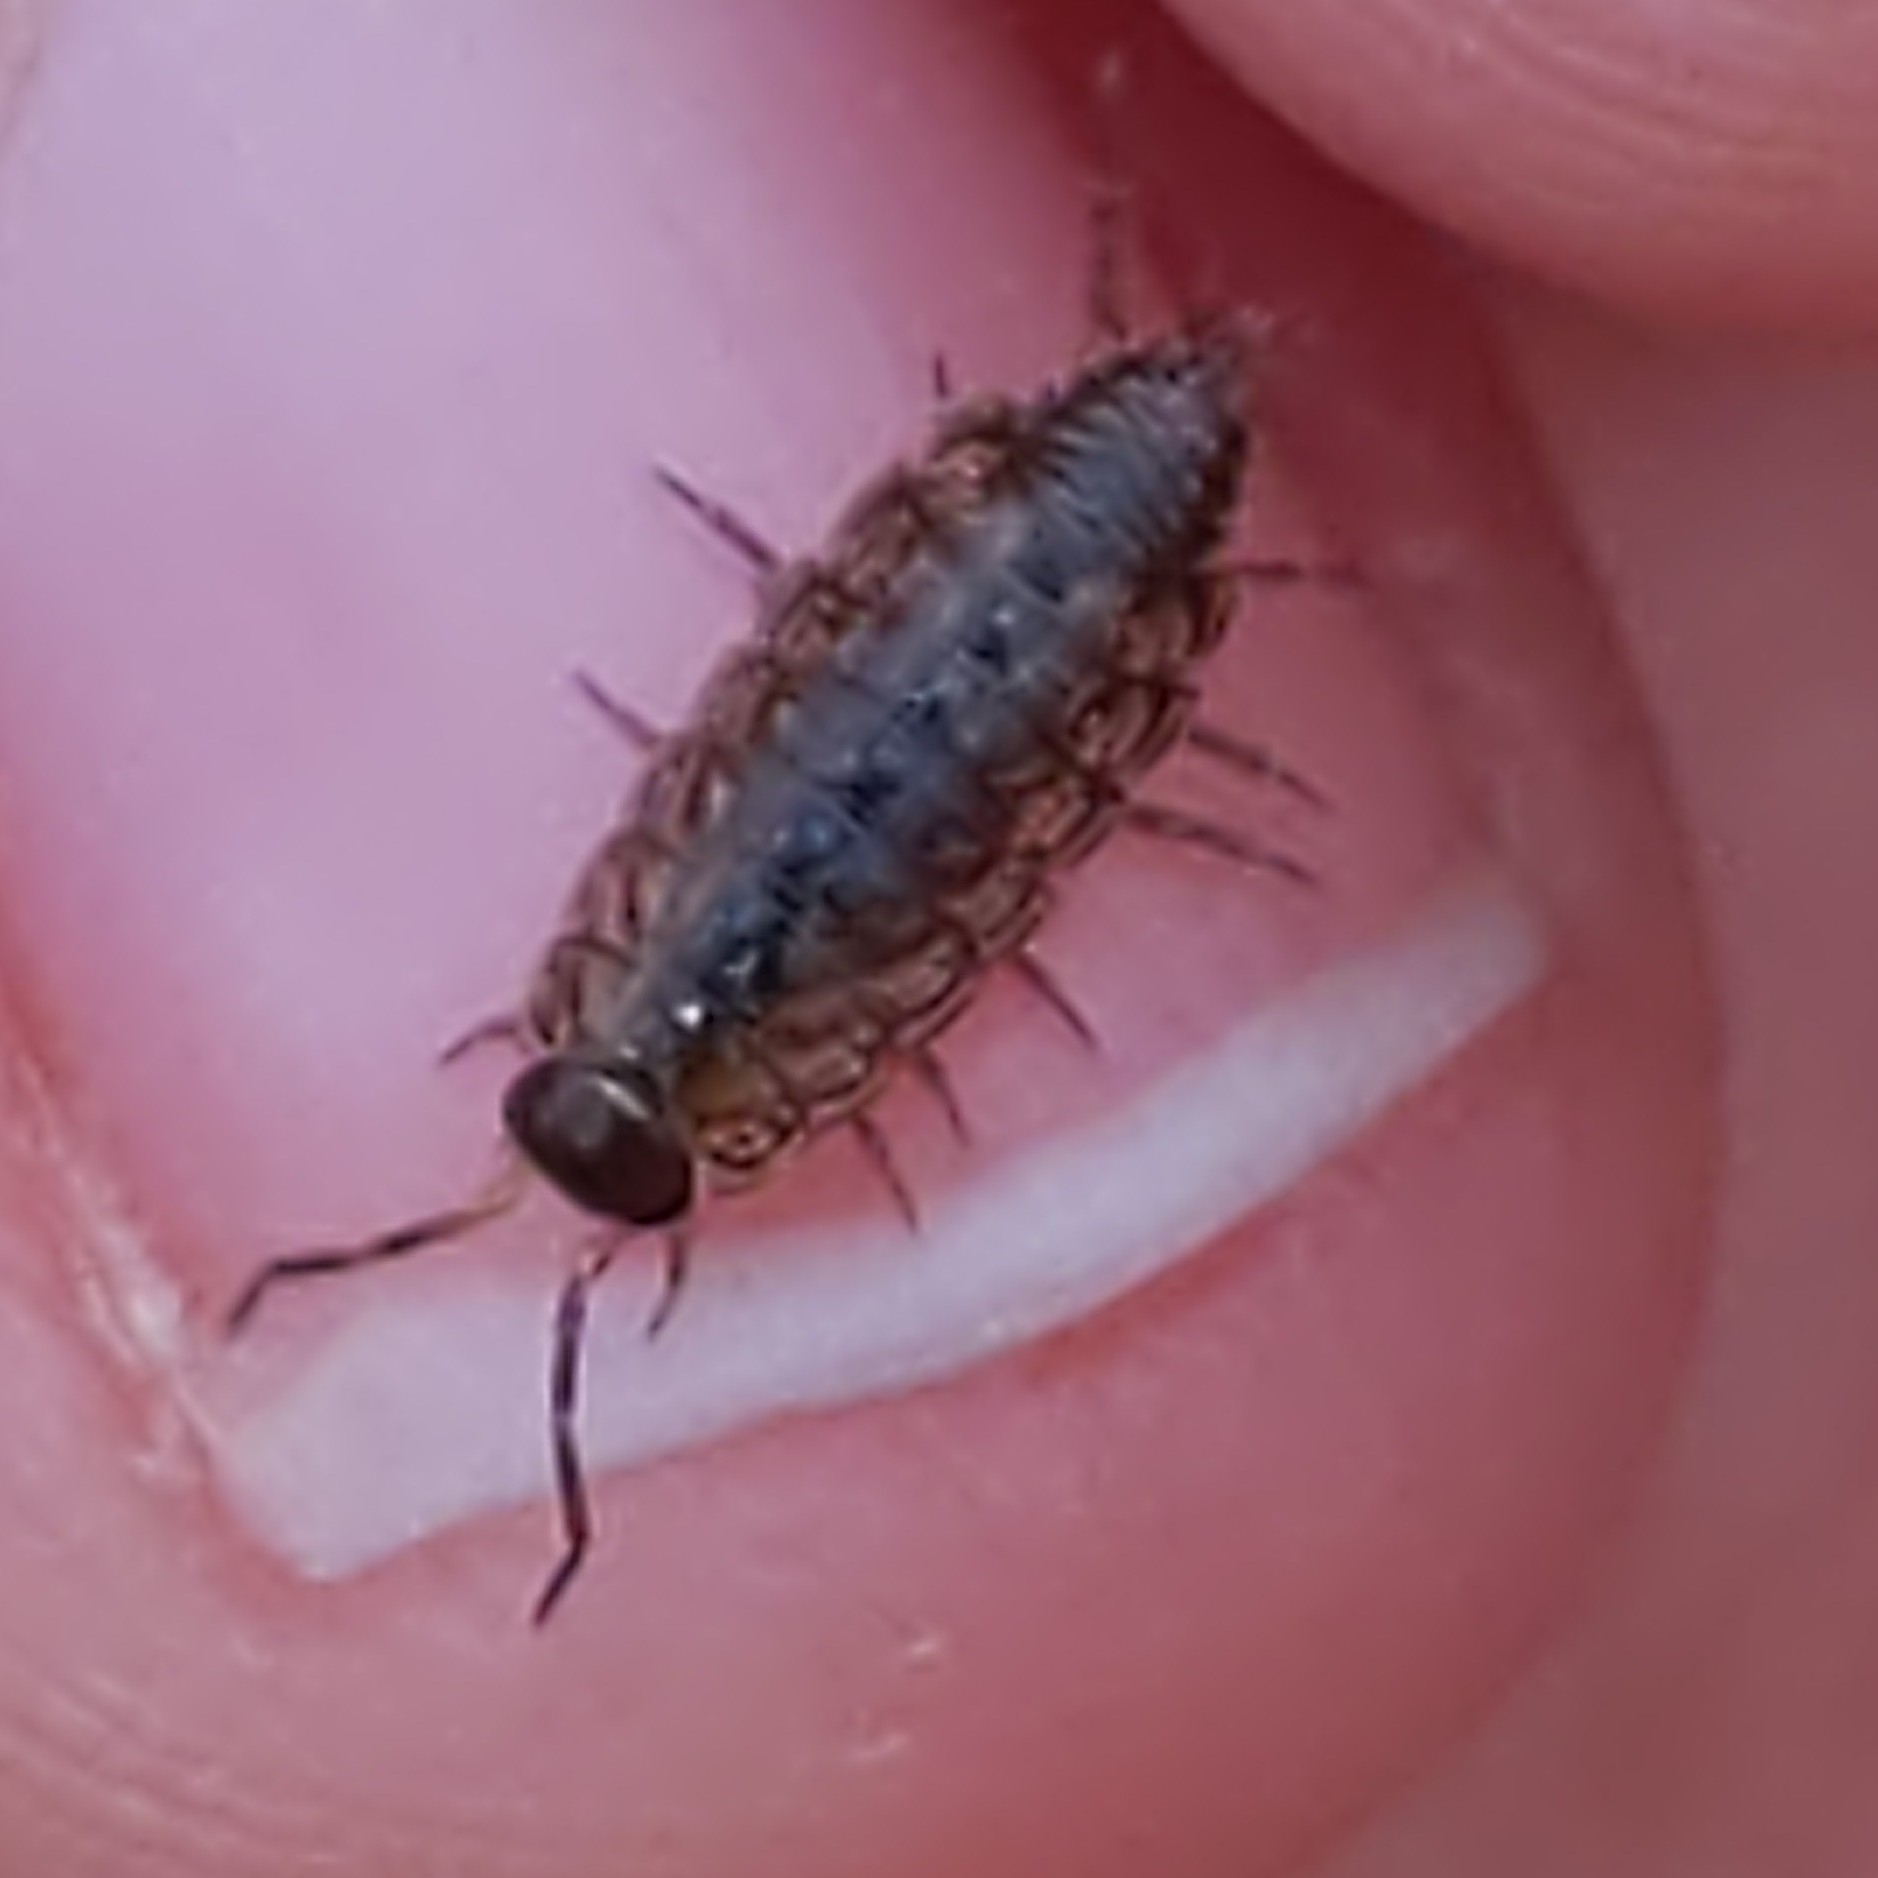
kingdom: Animalia
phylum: Arthropoda
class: Malacostraca
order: Isopoda
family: Philosciidae
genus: Philoscia
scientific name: Philoscia muscorum
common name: Common striped woodlouse
